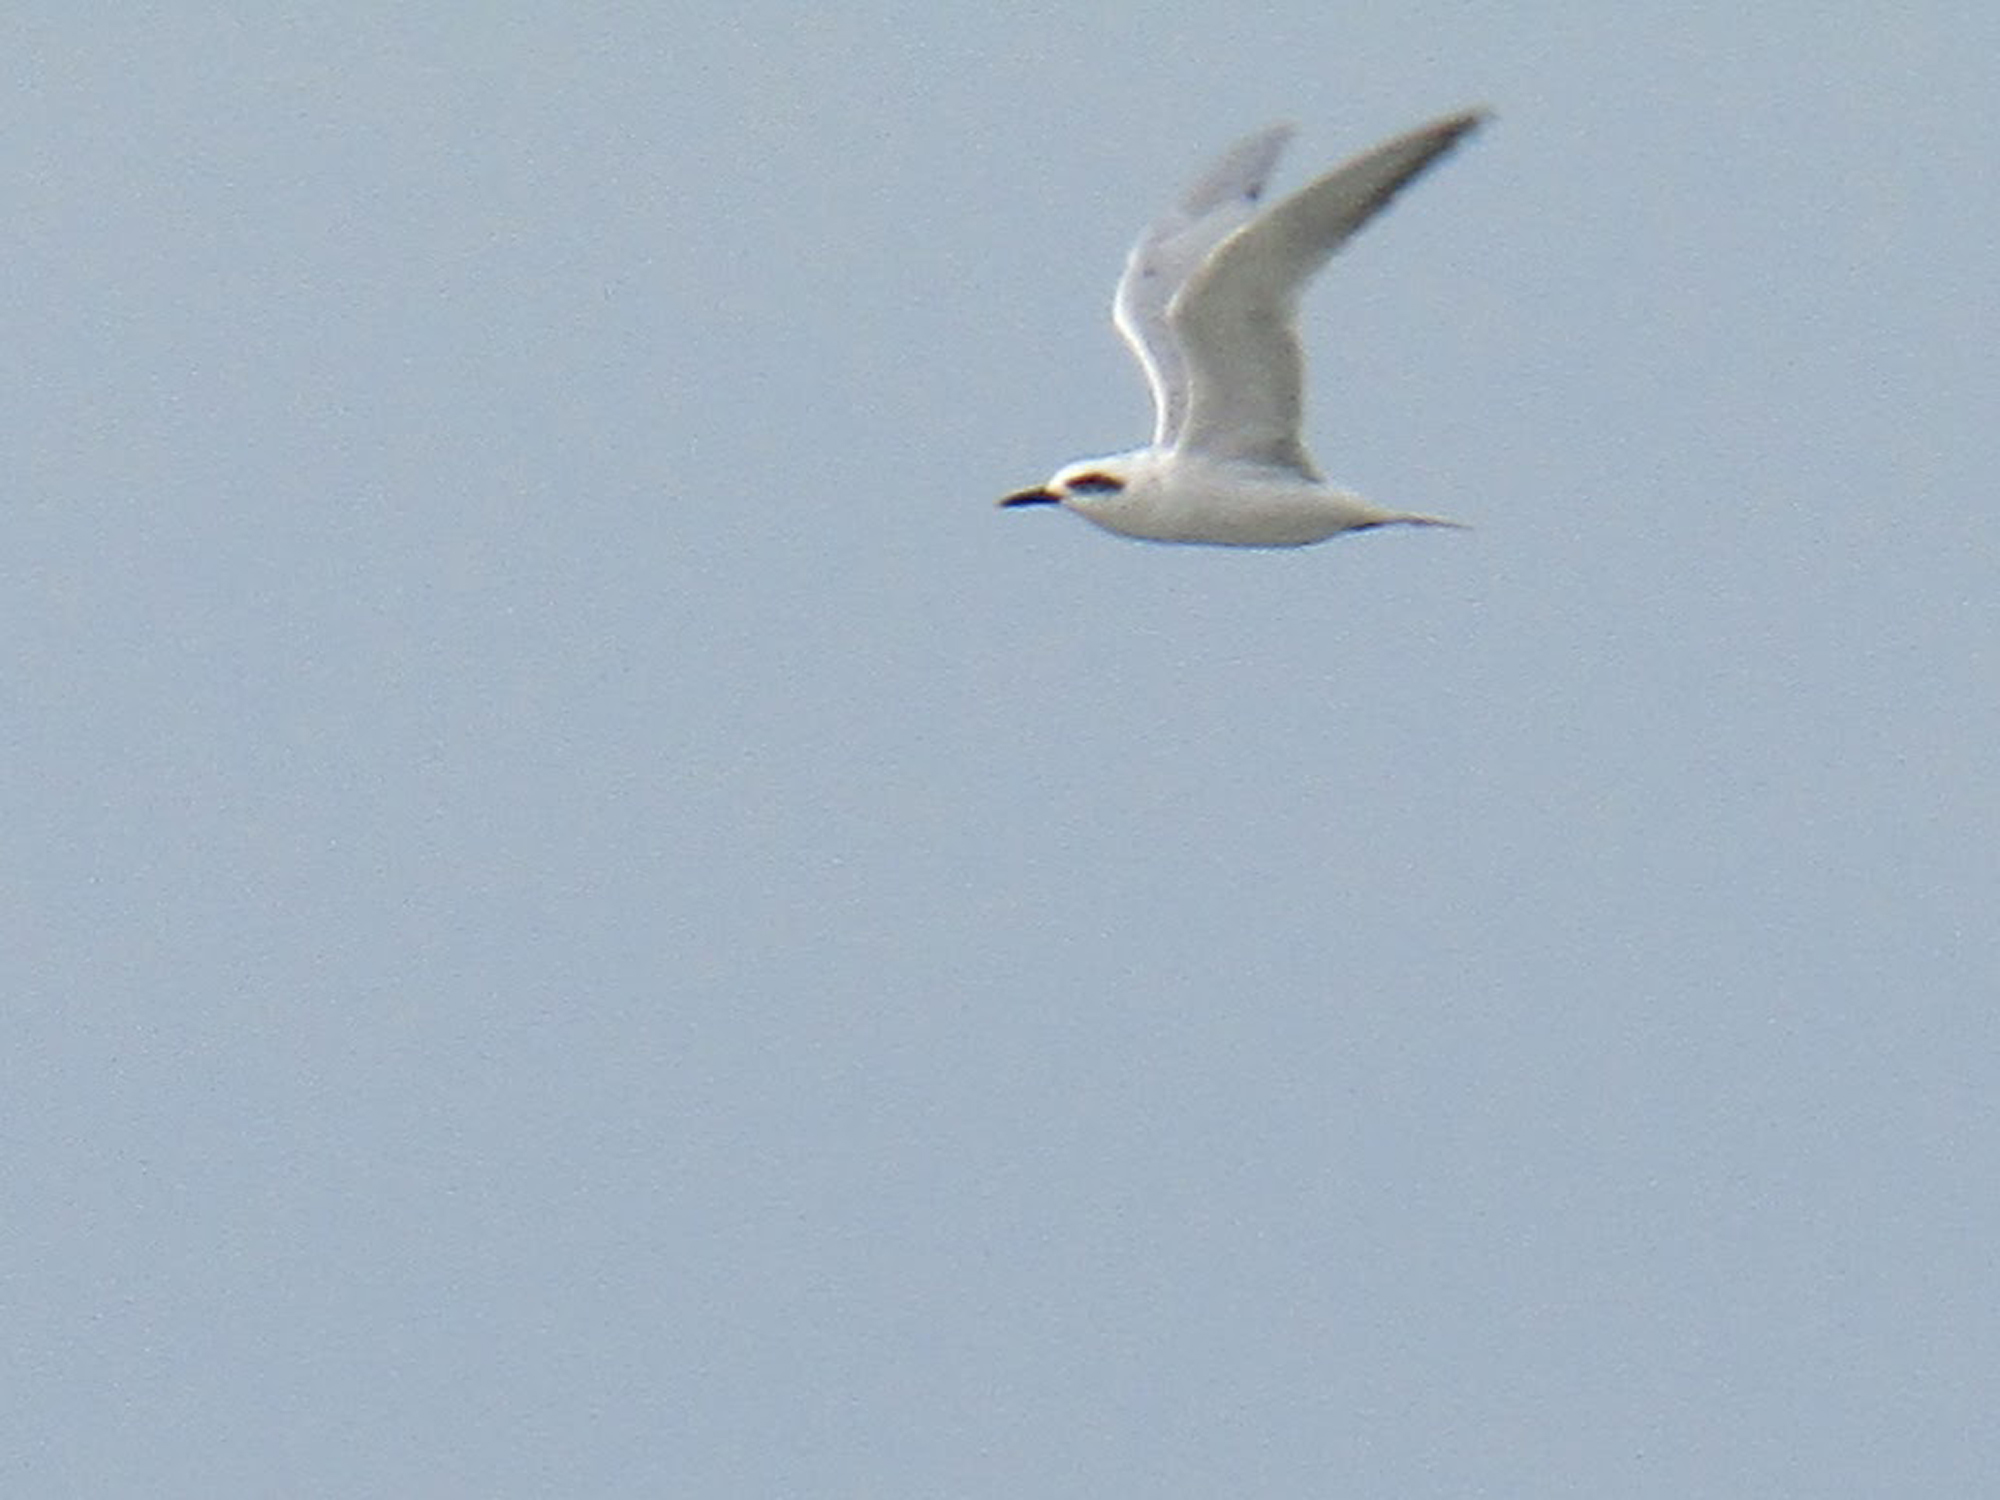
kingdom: Animalia
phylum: Chordata
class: Aves
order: Charadriiformes
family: Laridae
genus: Sterna
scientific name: Sterna trudeaui
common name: Snowy-crowned tern
